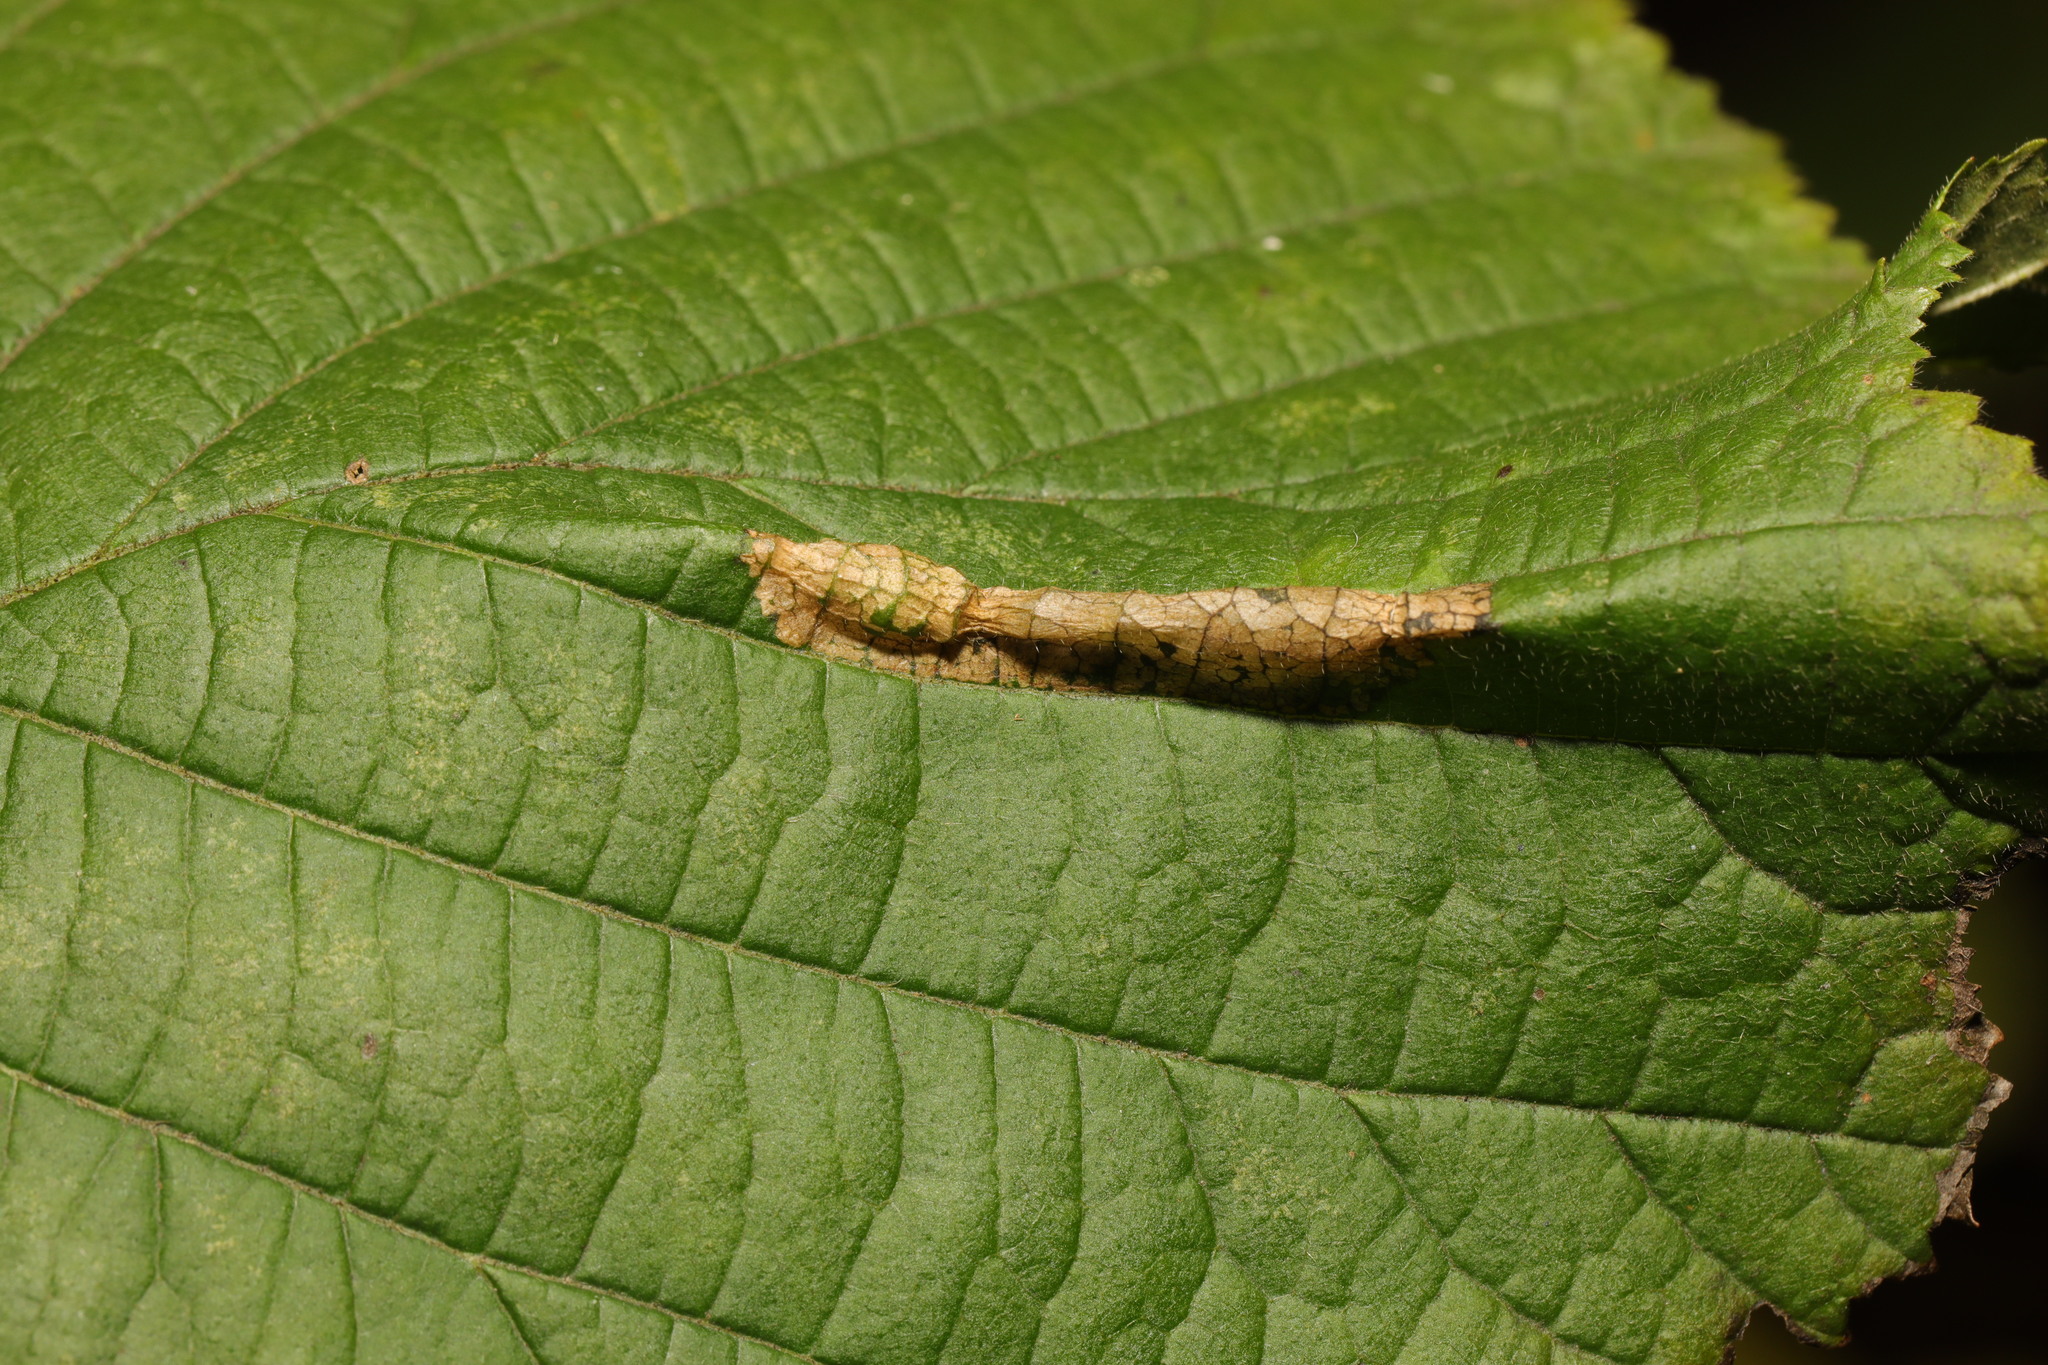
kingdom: Animalia
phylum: Arthropoda
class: Insecta
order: Lepidoptera
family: Gracillariidae
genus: Phyllonorycter
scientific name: Phyllonorycter nicellii
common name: Red hazel midget
